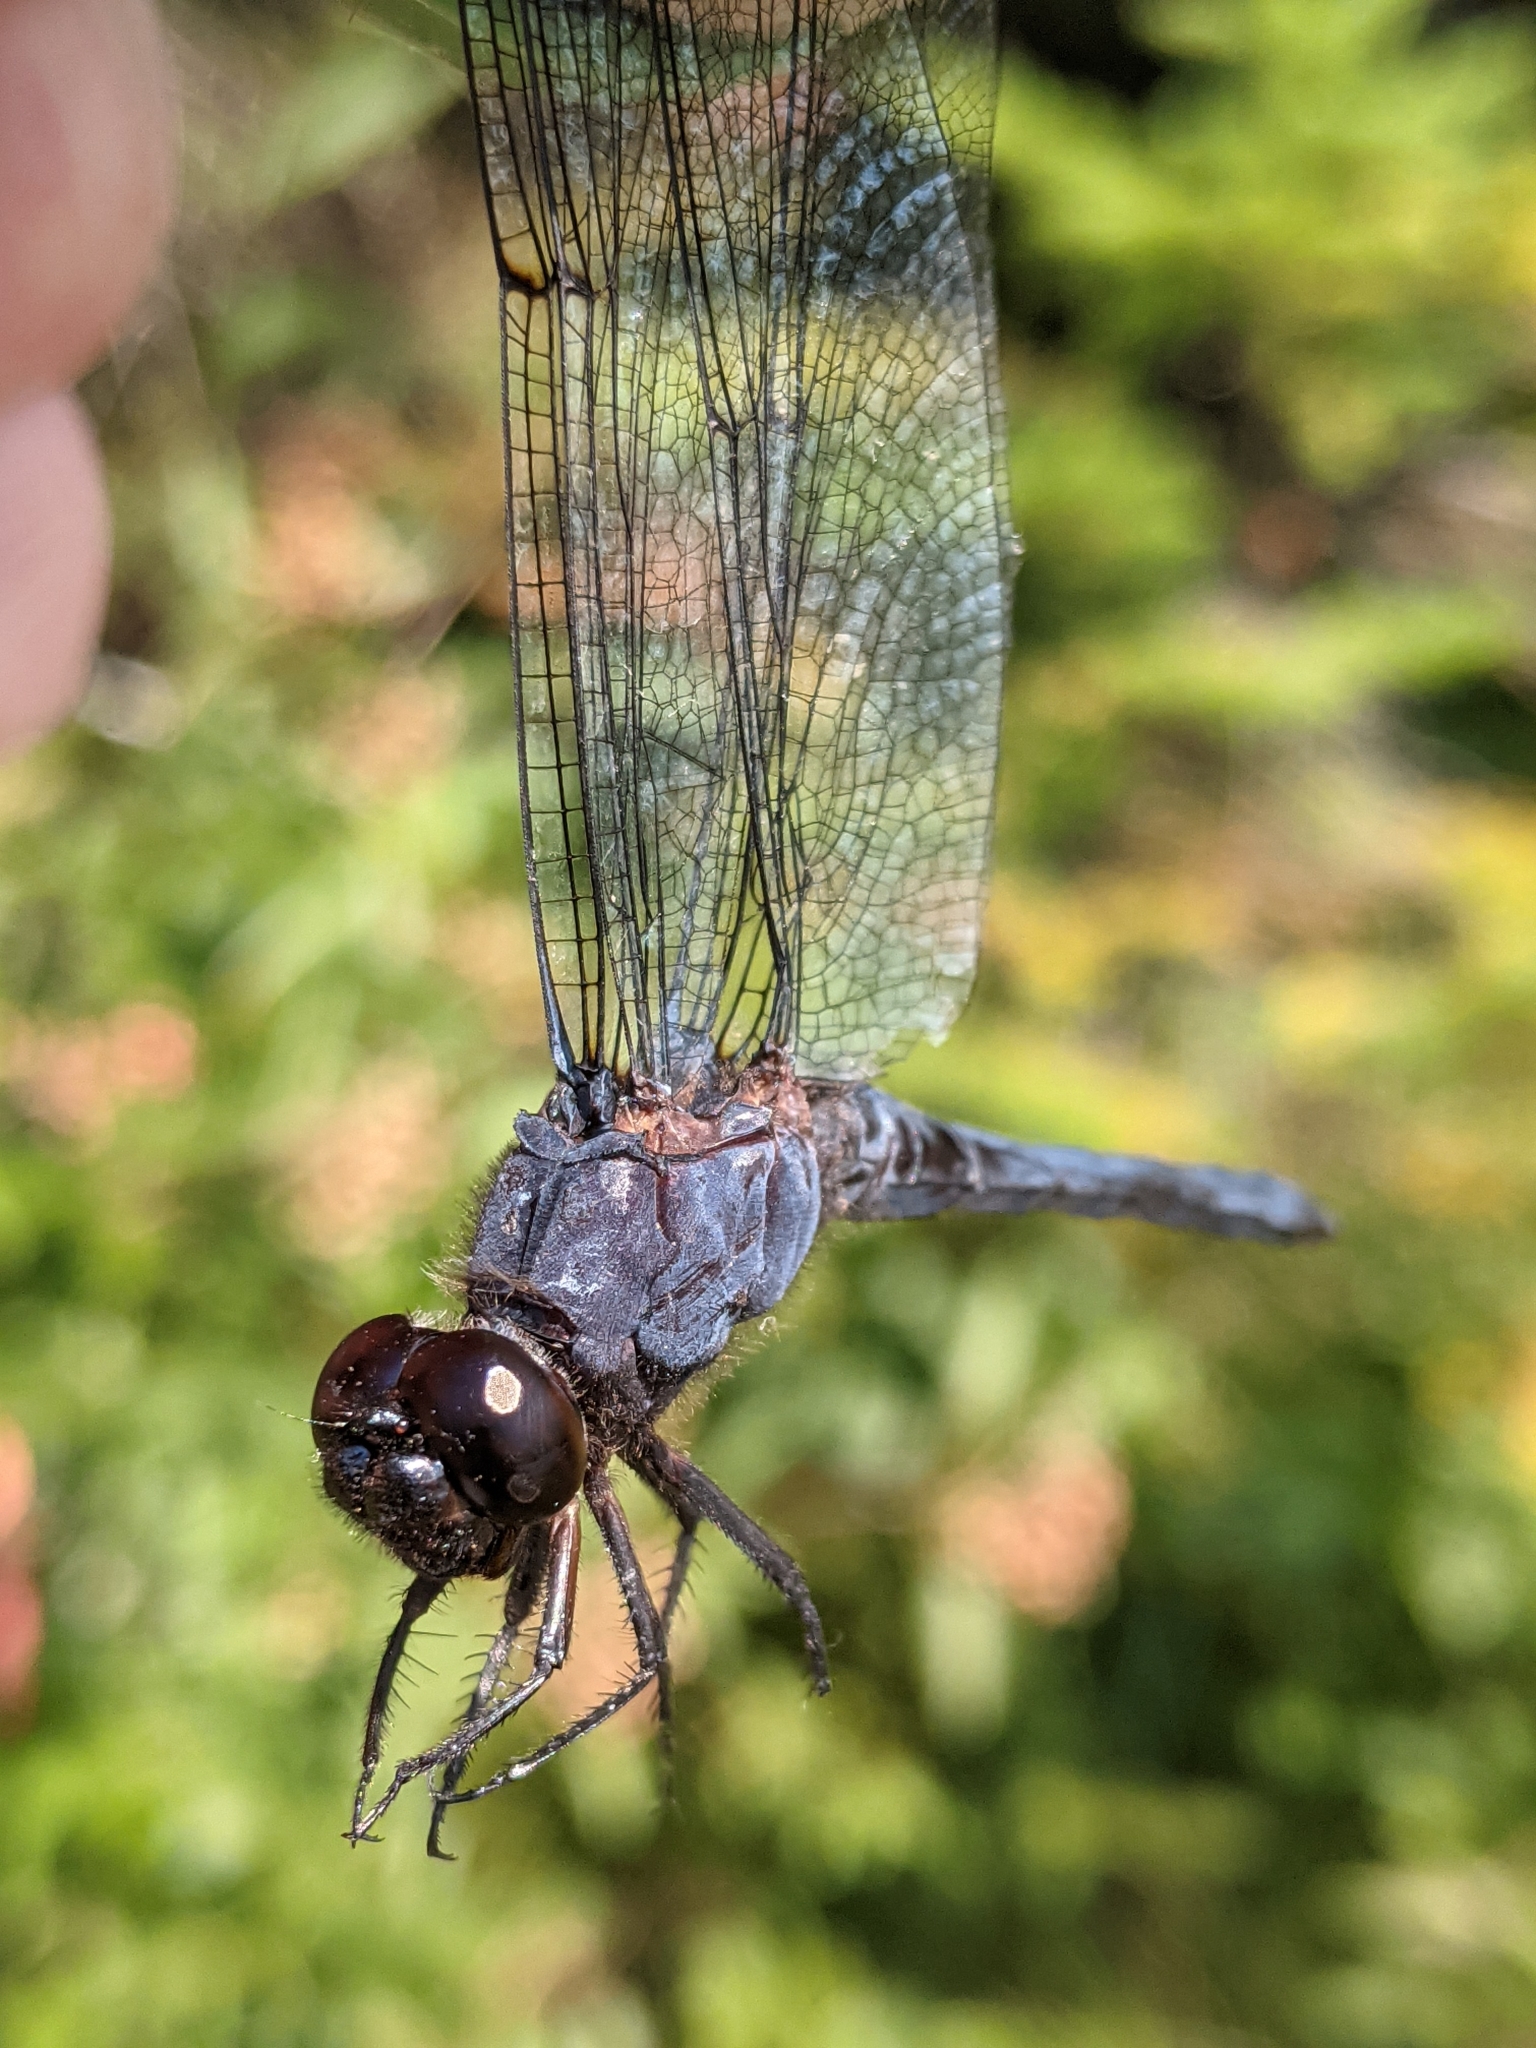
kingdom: Animalia
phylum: Arthropoda
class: Insecta
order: Odonata
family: Libellulidae
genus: Libellula
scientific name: Libellula incesta
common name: Slaty skimmer
